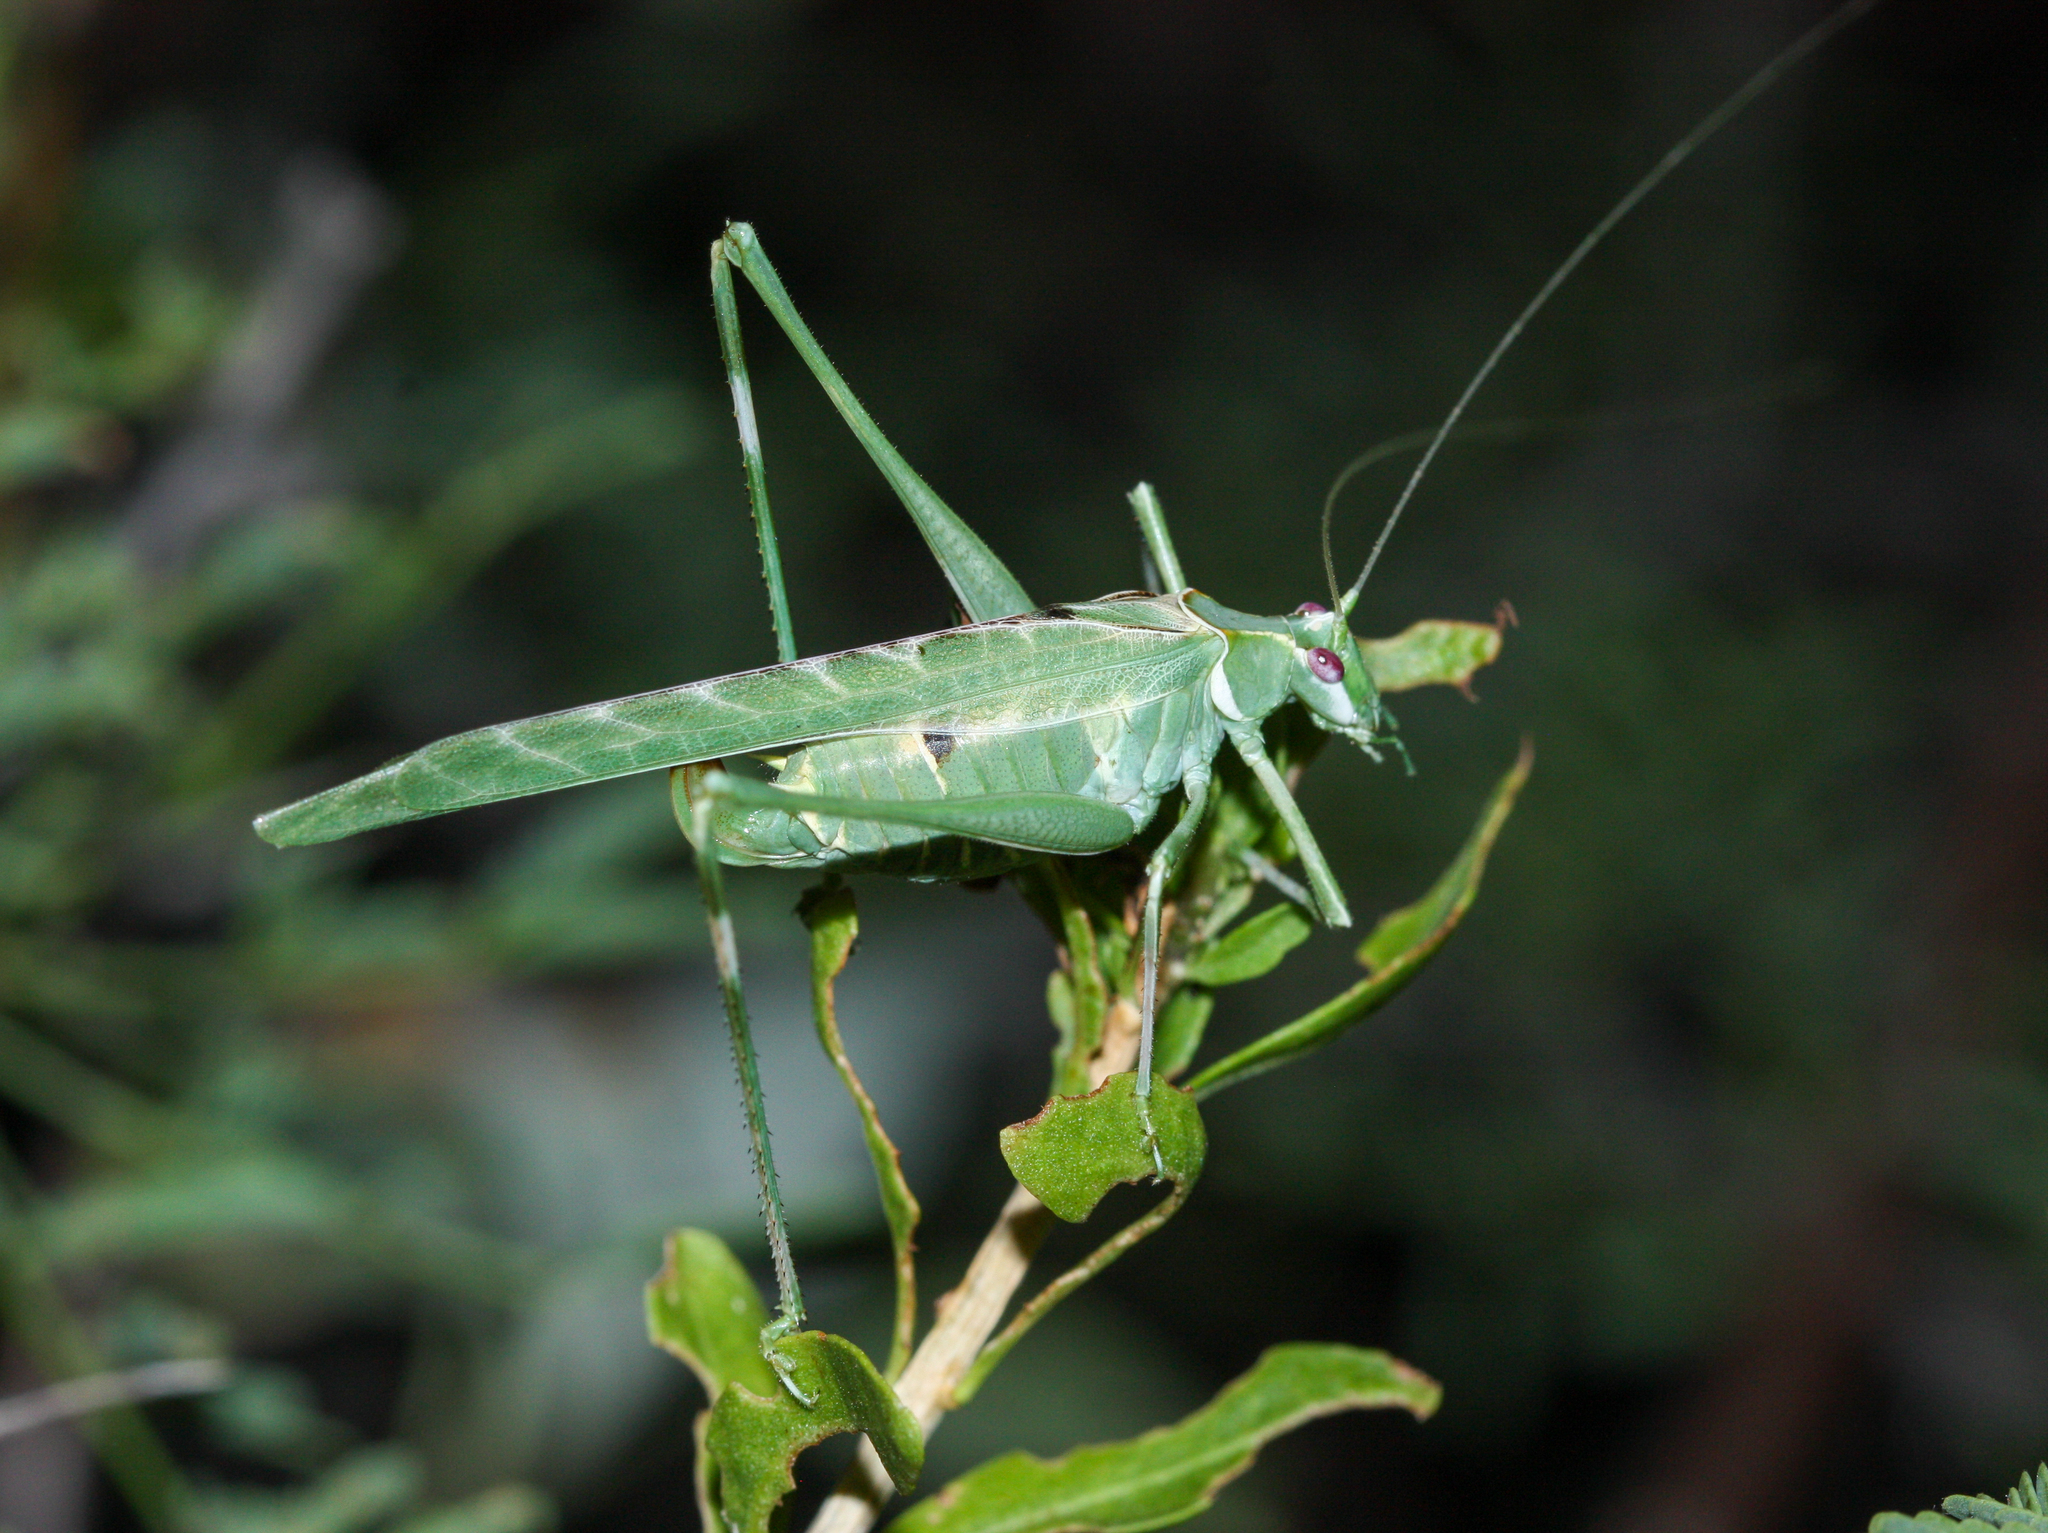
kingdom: Animalia
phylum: Arthropoda
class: Insecta
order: Orthoptera
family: Tettigoniidae
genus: Insara
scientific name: Insara elegans
